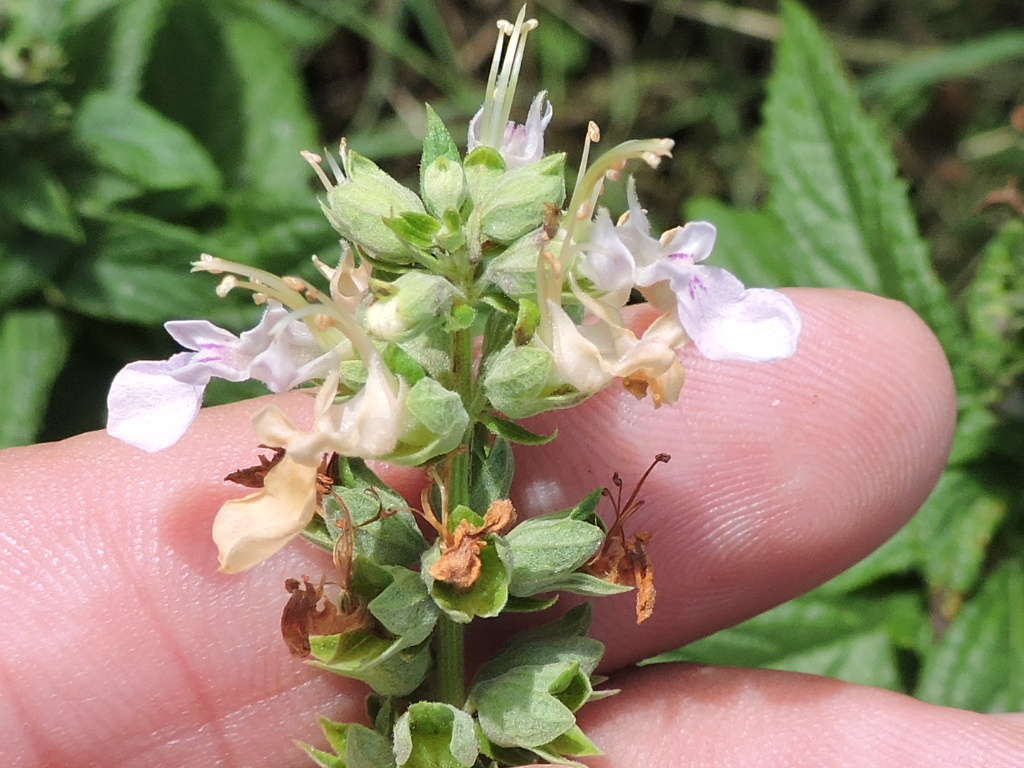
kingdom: Plantae
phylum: Tracheophyta
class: Magnoliopsida
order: Lamiales
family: Lamiaceae
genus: Teucrium
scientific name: Teucrium canadense
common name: American germander
